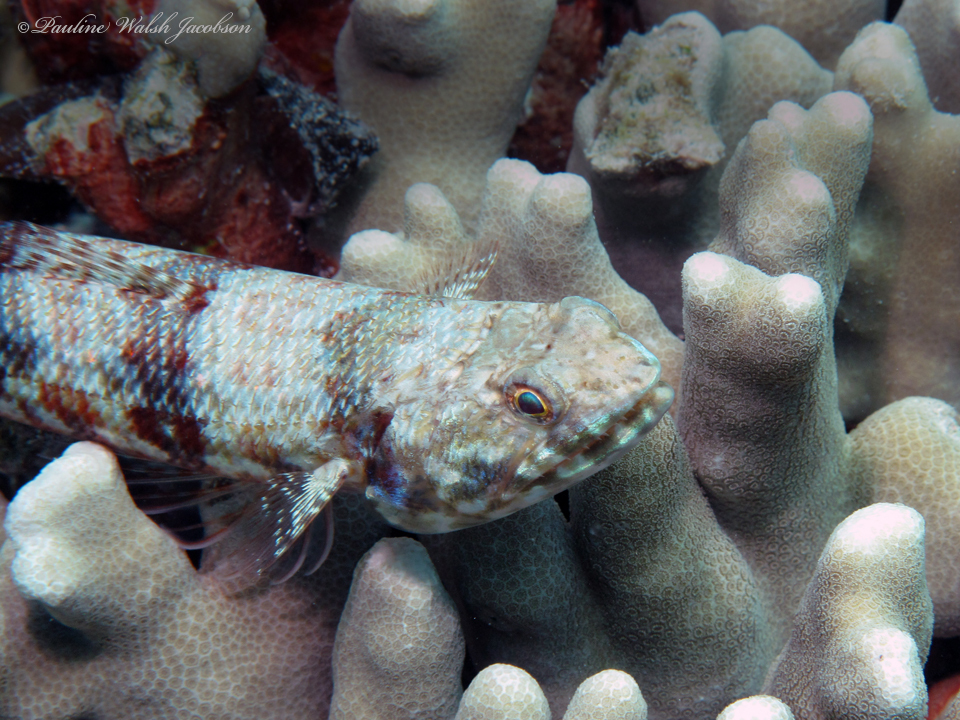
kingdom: Animalia
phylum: Chordata
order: Aulopiformes
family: Synodontidae
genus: Synodus
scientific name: Synodus variegatus
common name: Variegated lizardfish
